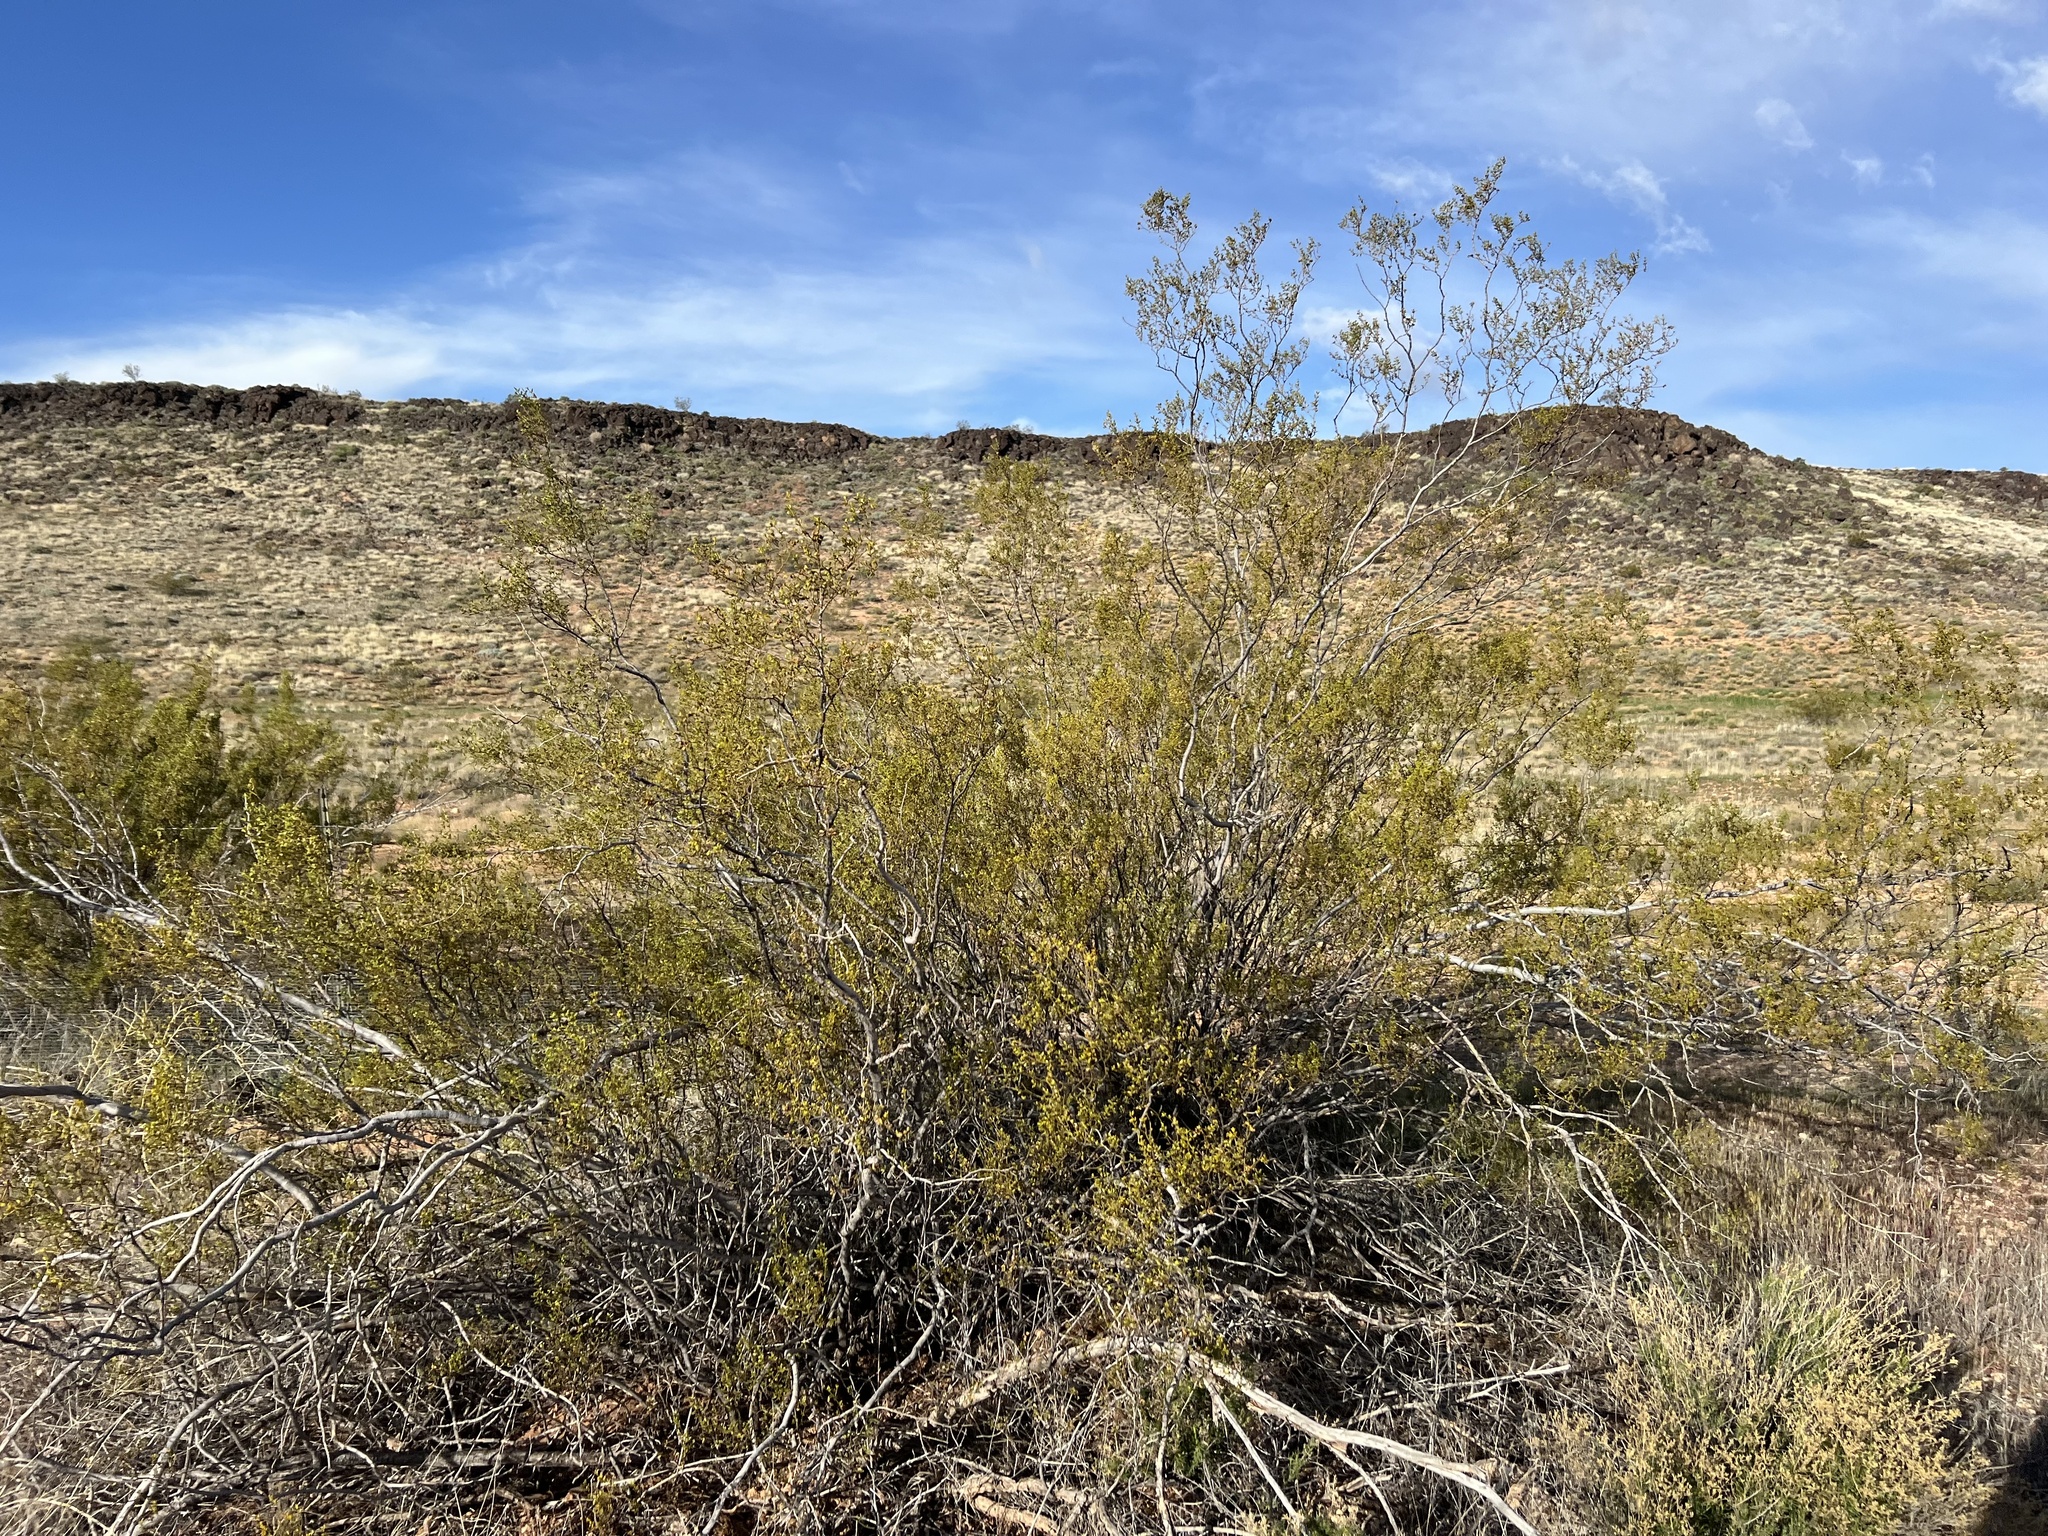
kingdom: Plantae
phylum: Tracheophyta
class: Magnoliopsida
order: Zygophyllales
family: Zygophyllaceae
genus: Larrea
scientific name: Larrea tridentata
